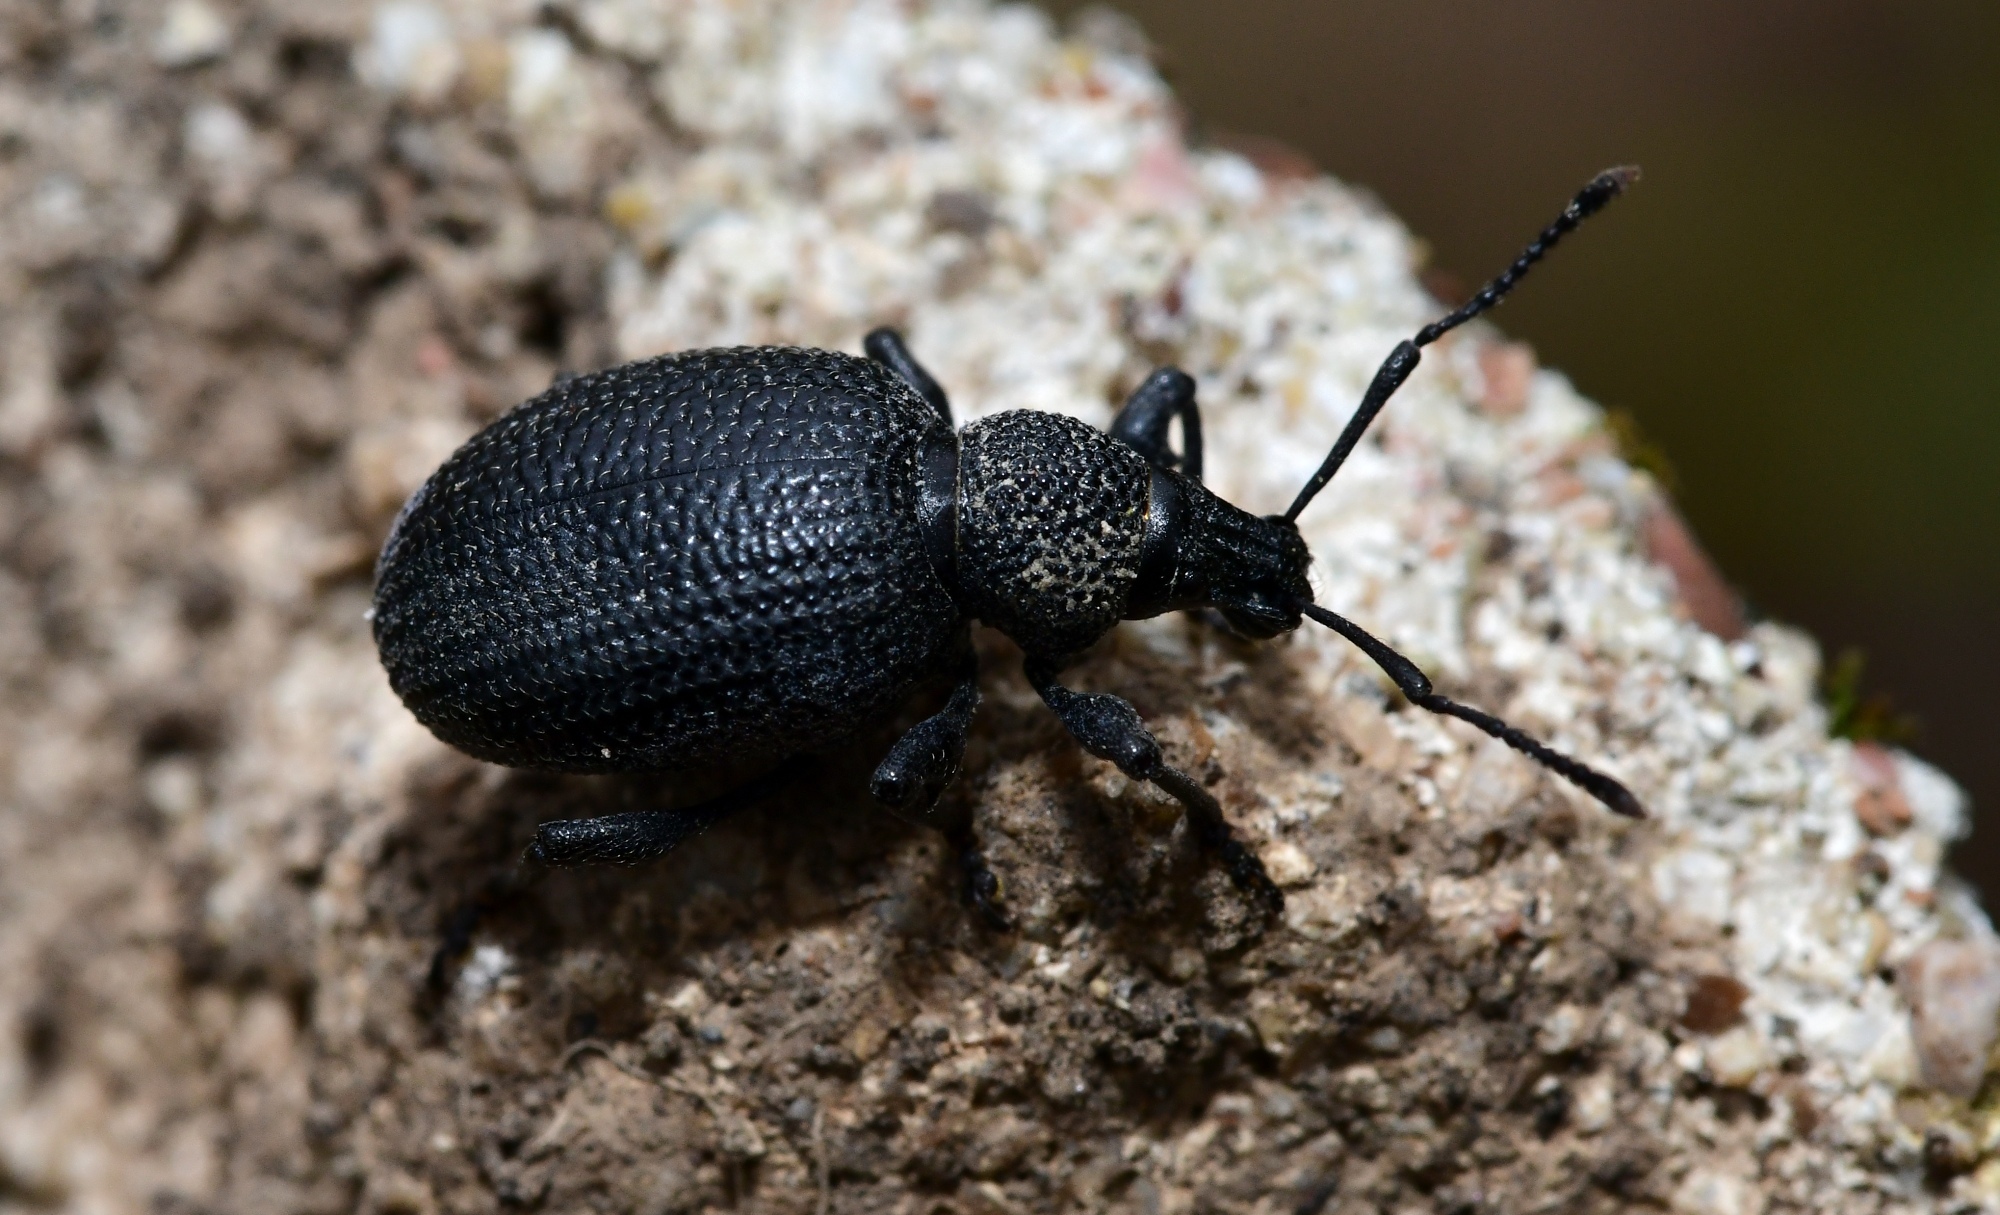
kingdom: Animalia
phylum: Arthropoda
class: Insecta
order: Coleoptera
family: Curculionidae
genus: Otiorhynchus
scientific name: Otiorhynchus lugens
